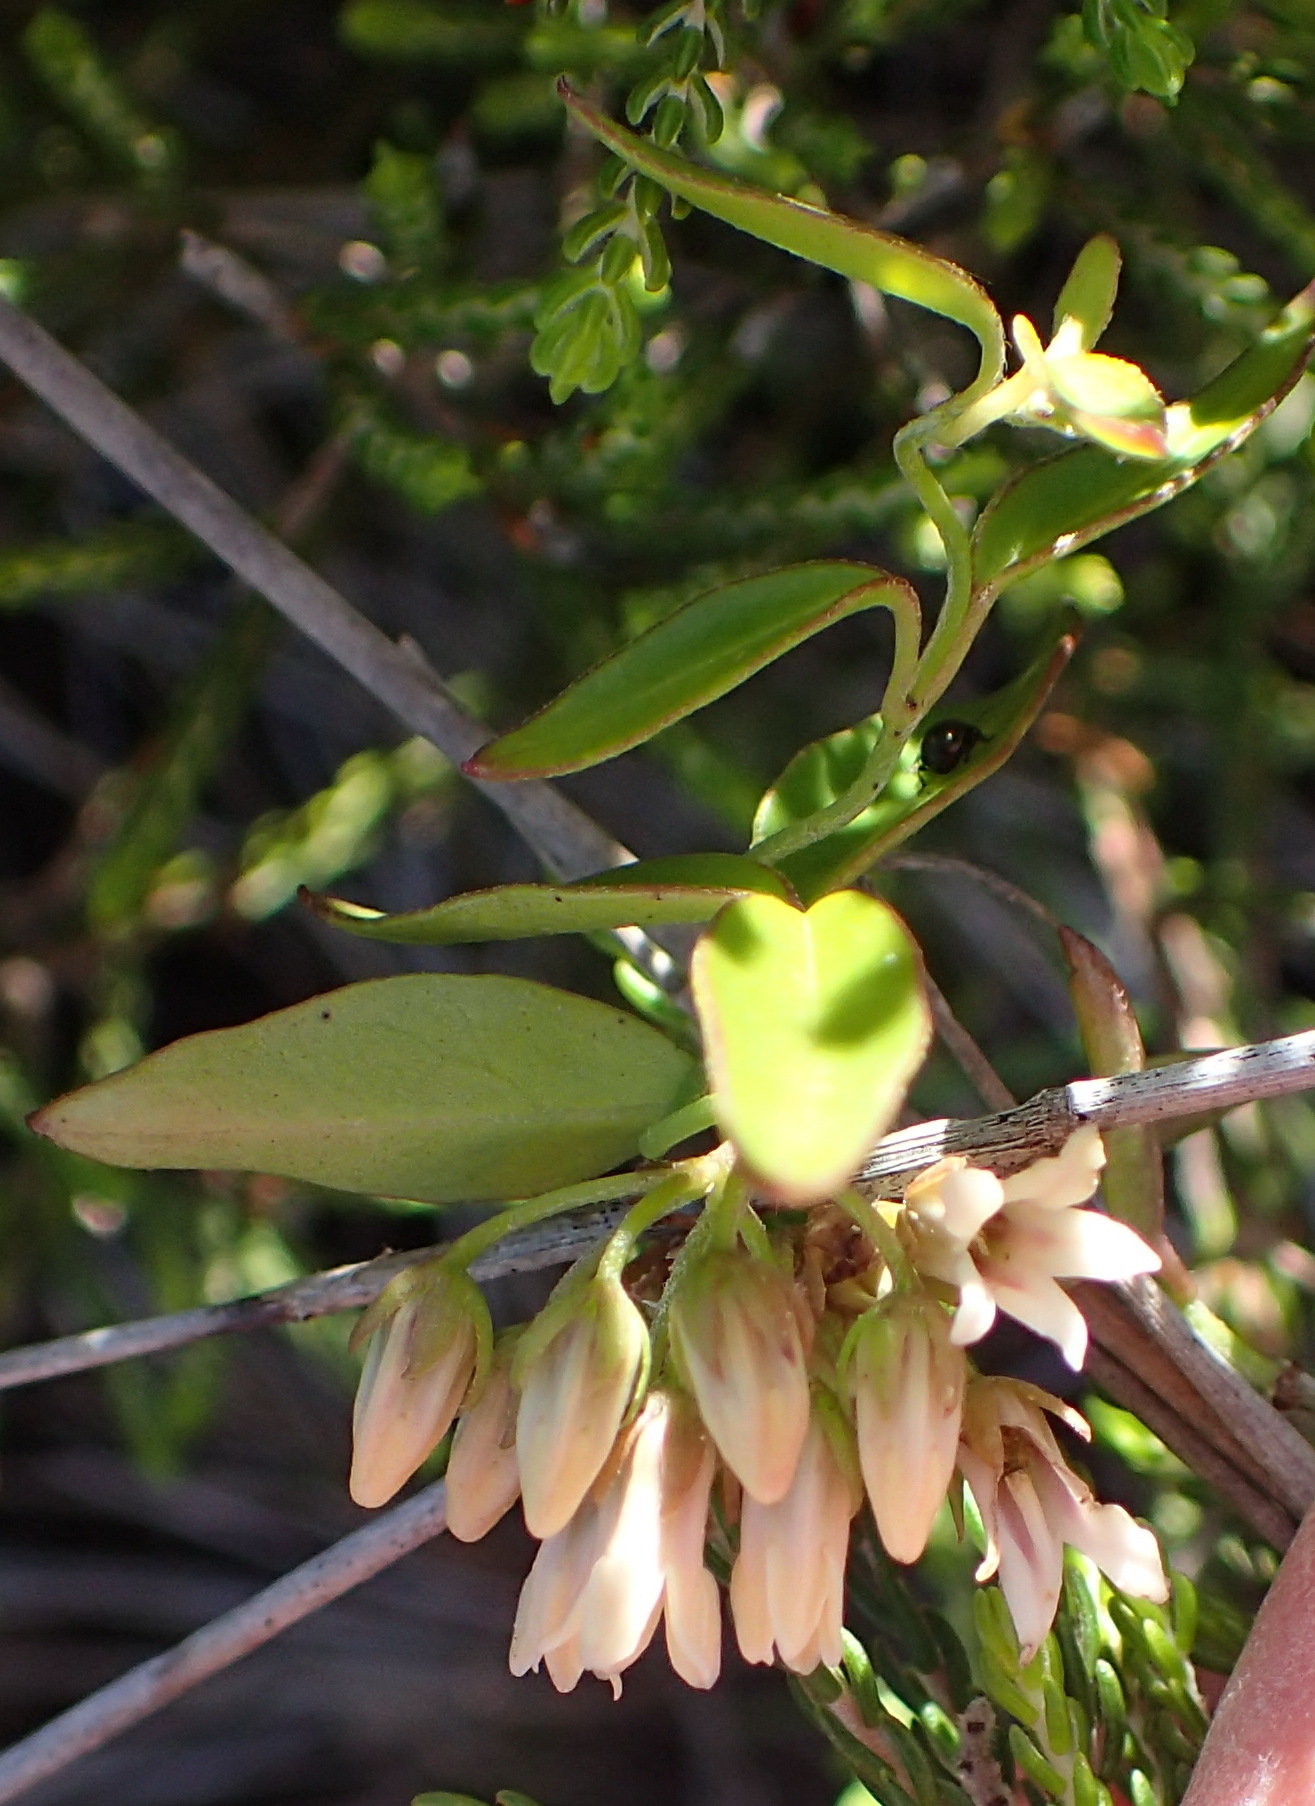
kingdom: Plantae
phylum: Tracheophyta
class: Magnoliopsida
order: Gentianales
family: Apocynaceae
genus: Astephanus
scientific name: Astephanus triflorus
